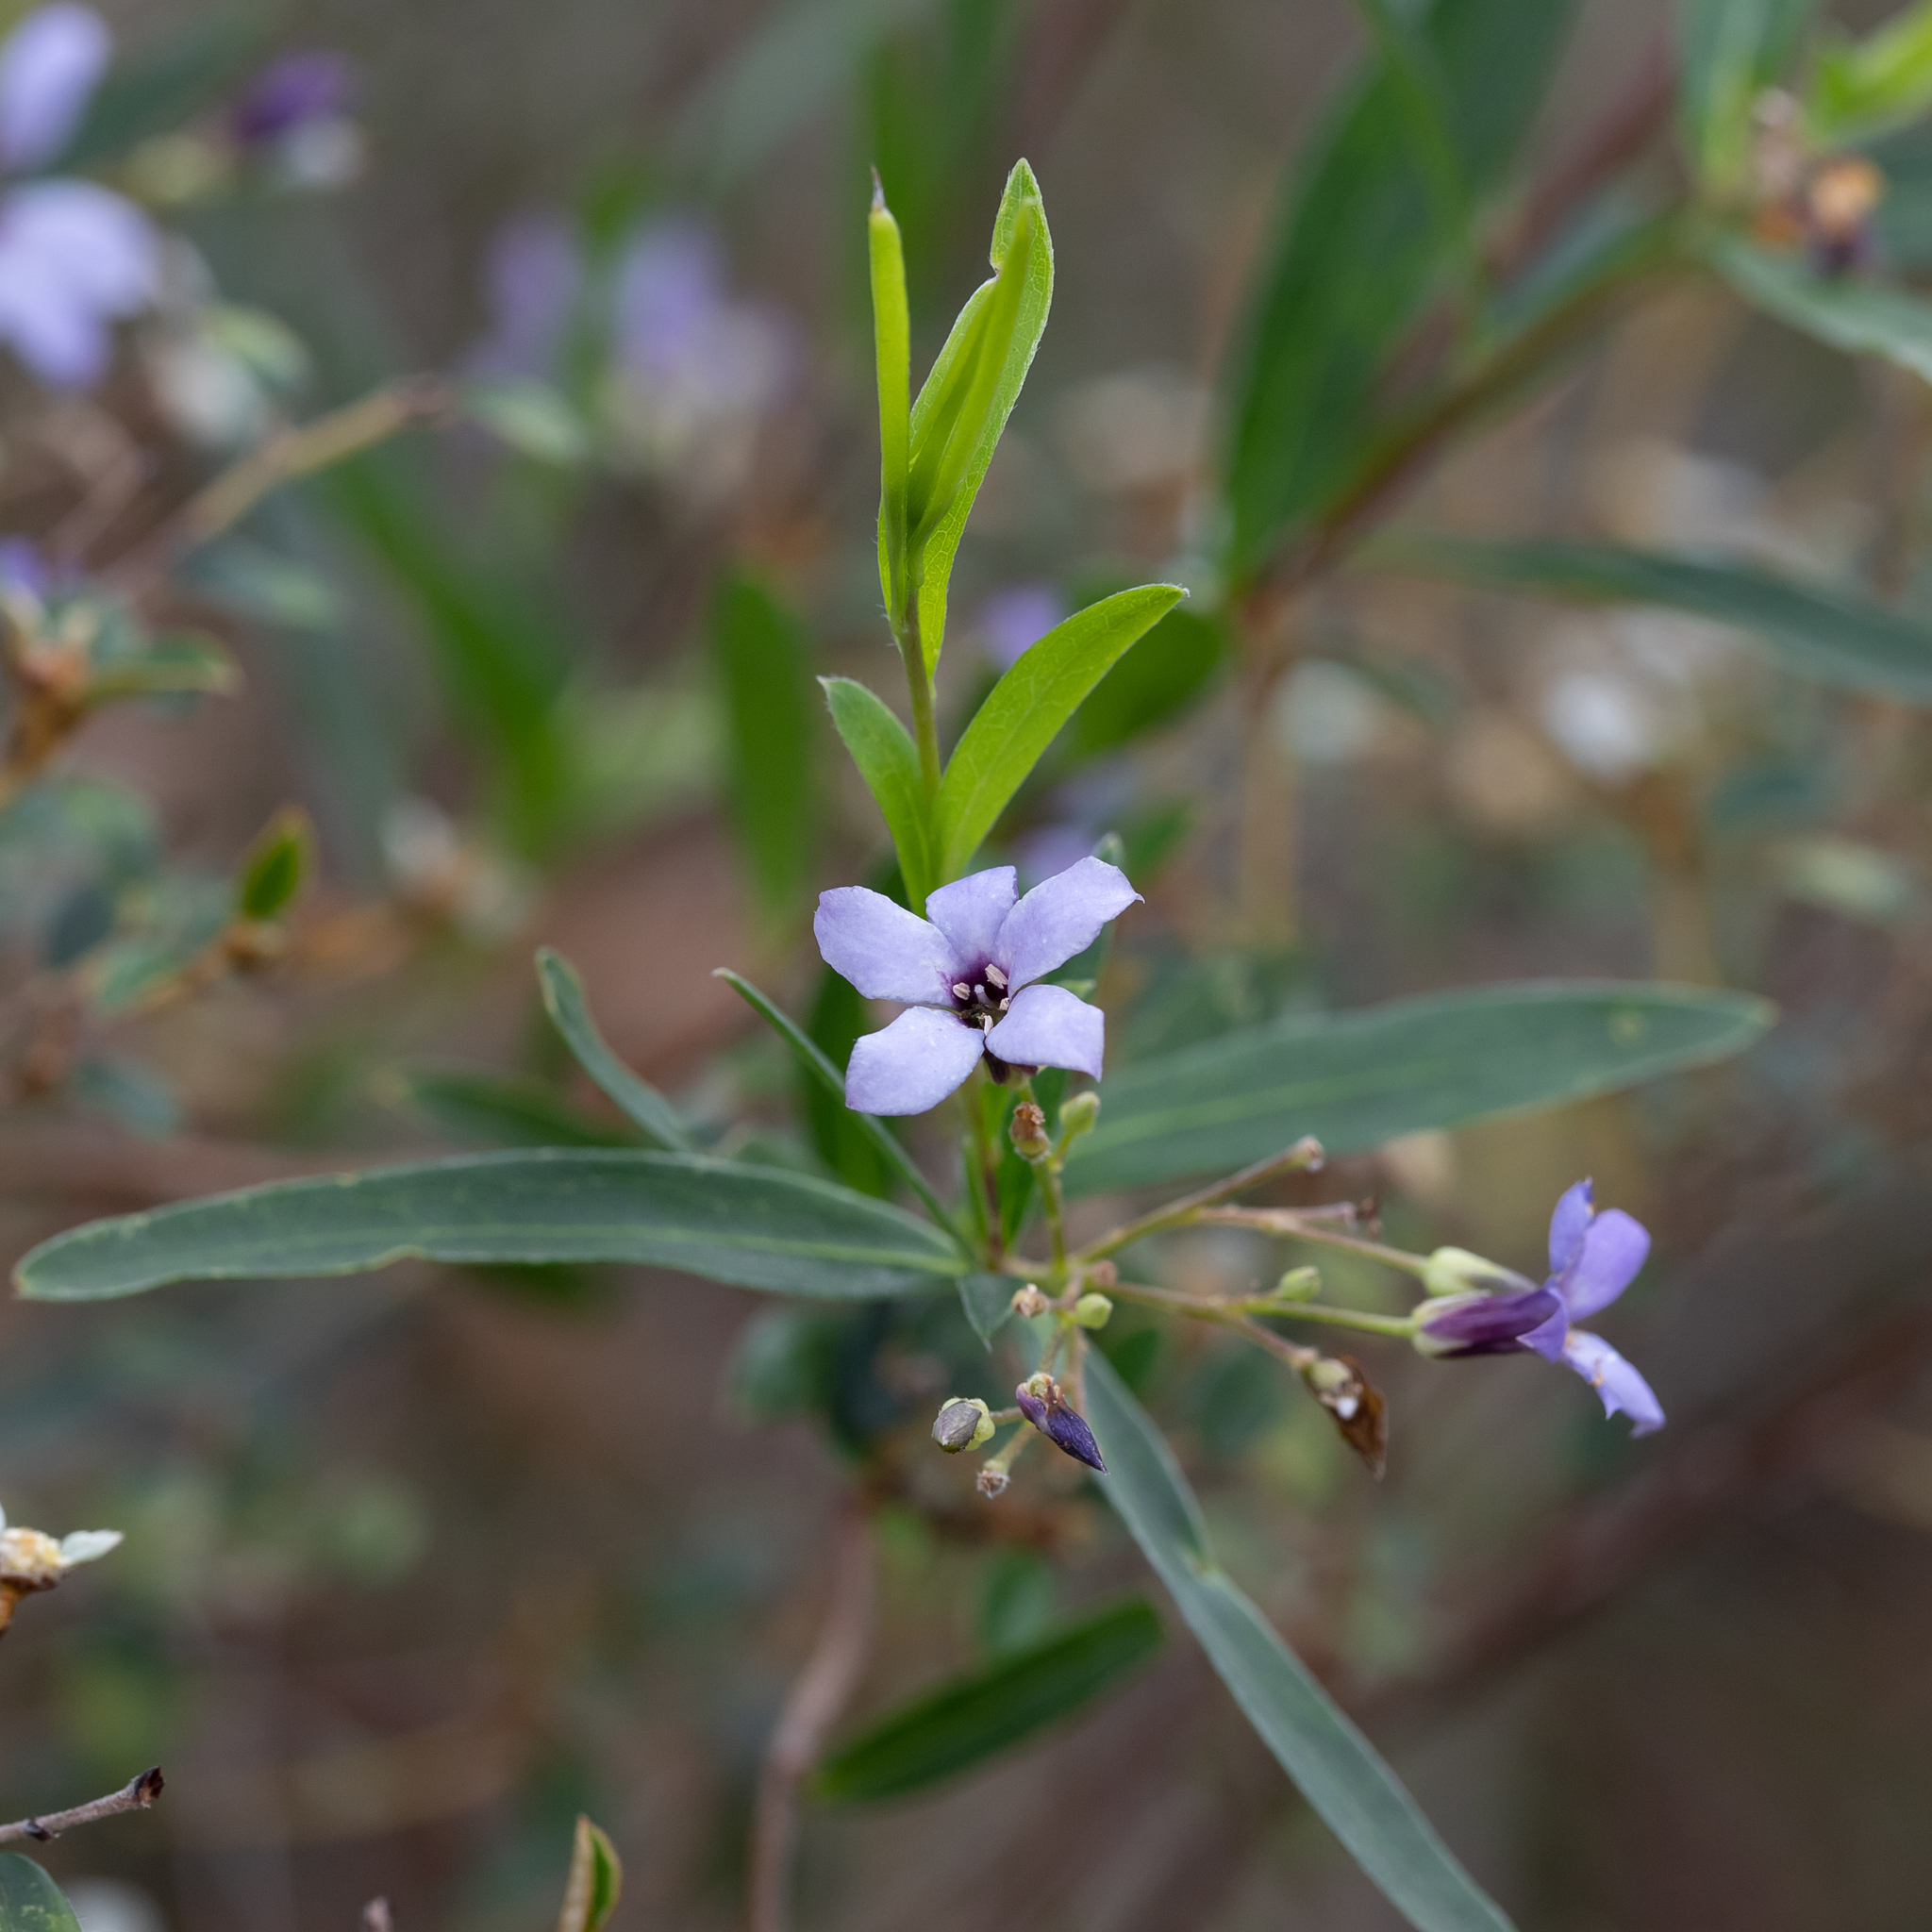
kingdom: Plantae
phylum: Tracheophyta
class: Magnoliopsida
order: Apiales
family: Pittosporaceae
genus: Billardiera
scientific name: Billardiera cymosa
